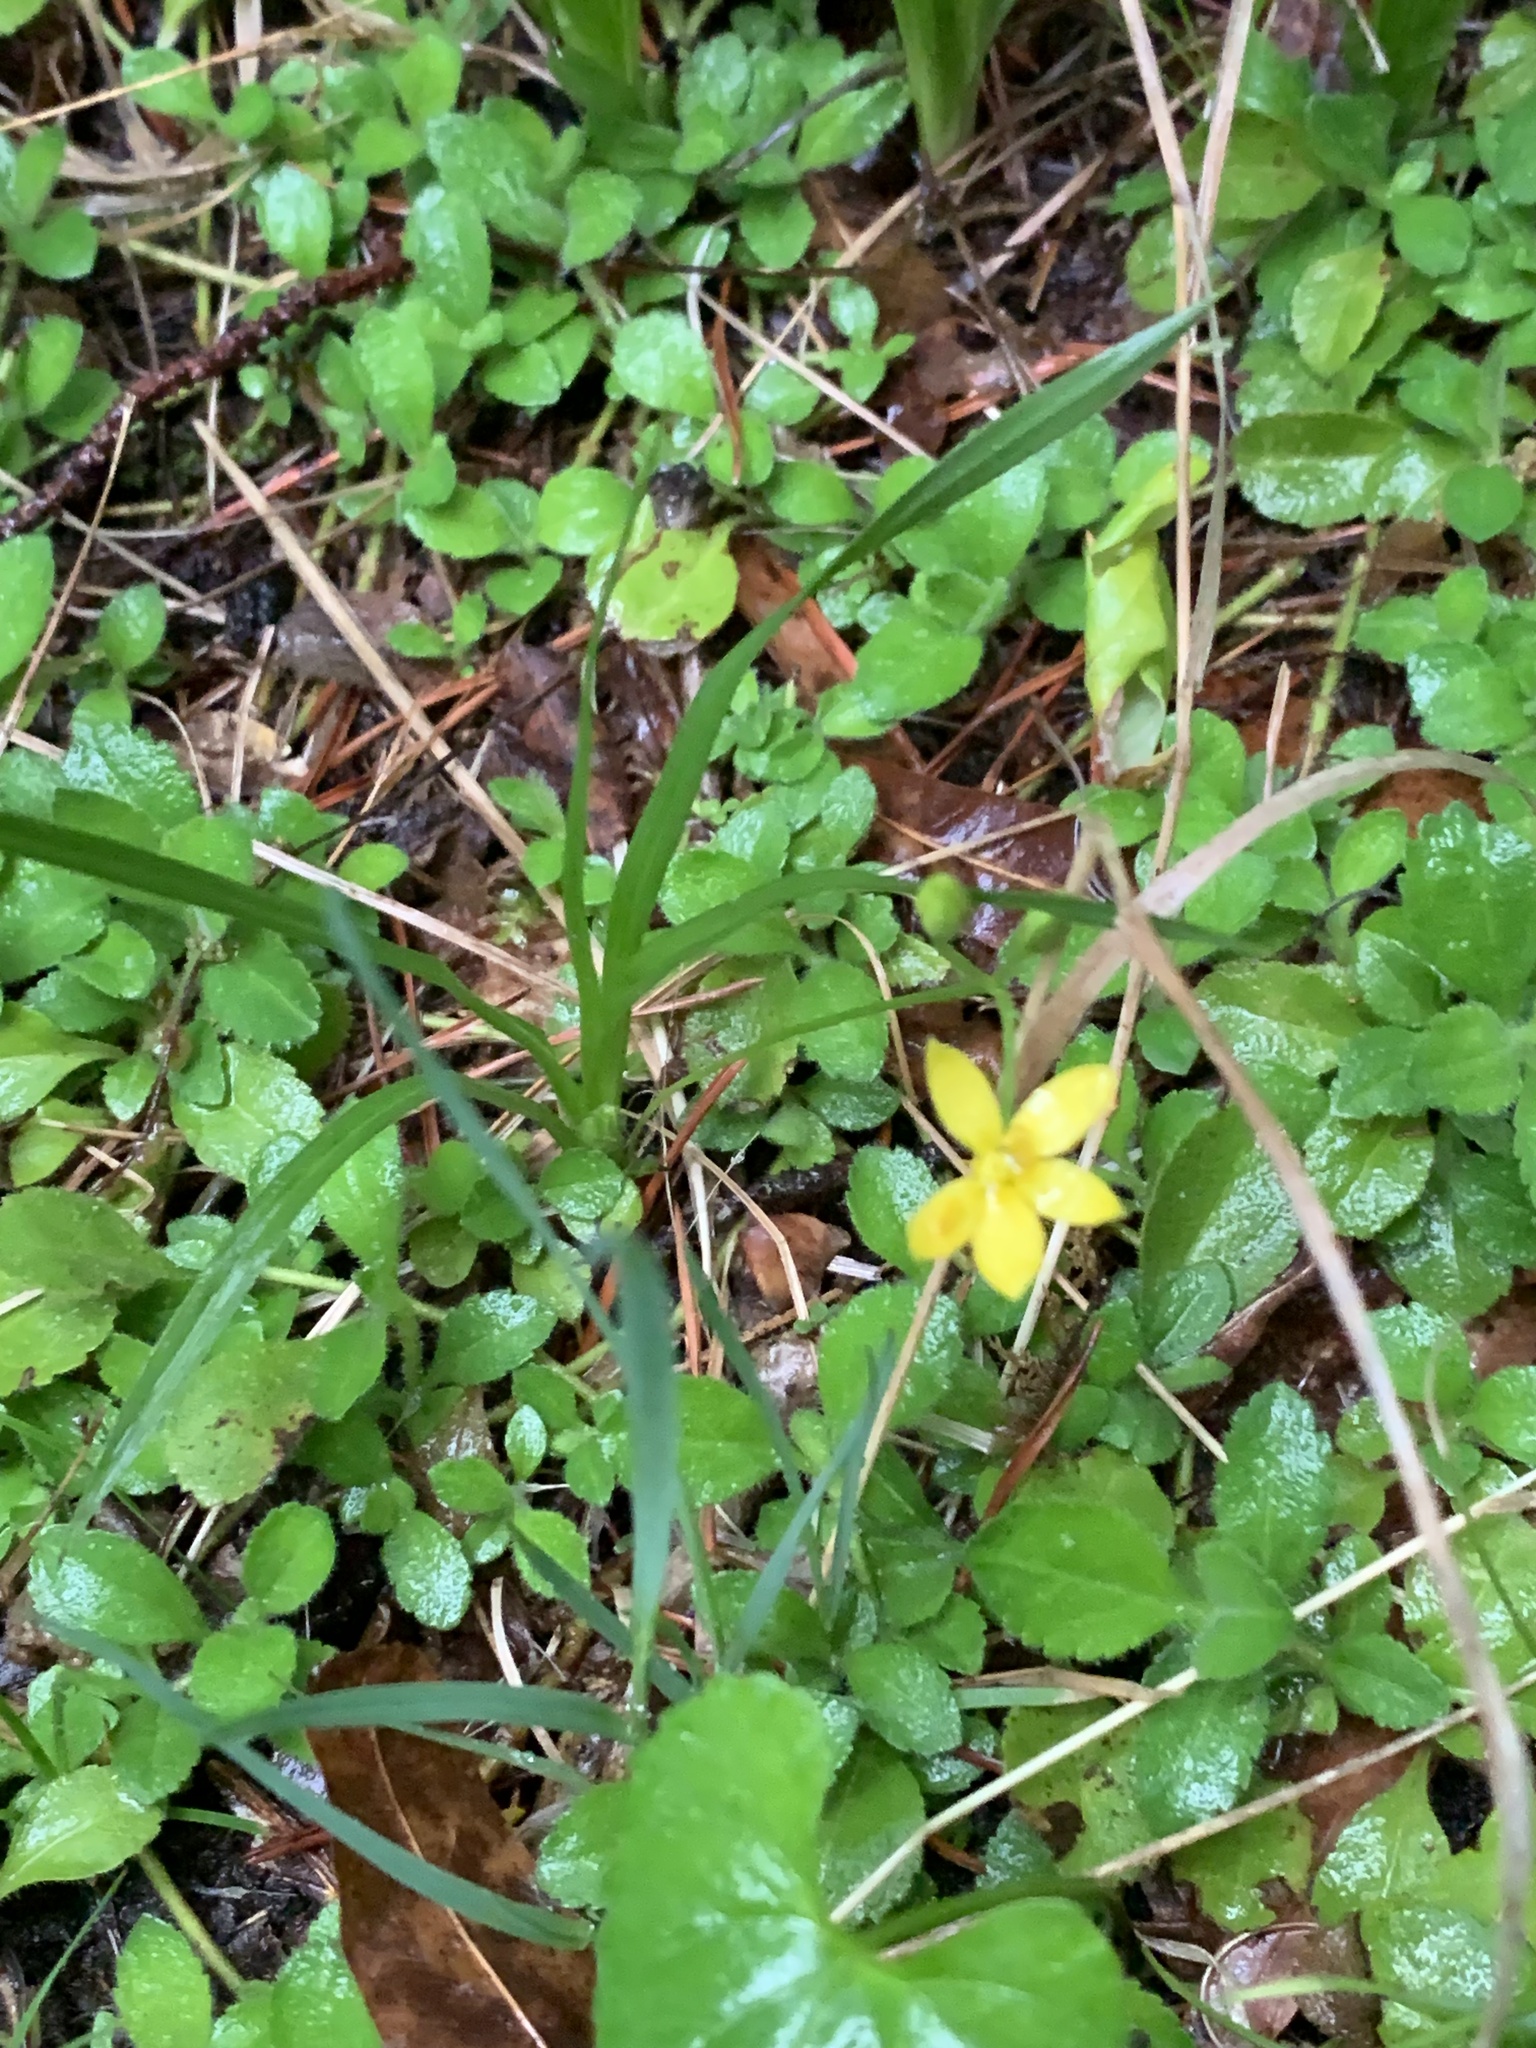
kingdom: Plantae
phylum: Tracheophyta
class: Liliopsida
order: Asparagales
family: Hypoxidaceae
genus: Hypoxis
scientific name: Hypoxis hirsuta
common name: Common goldstar
